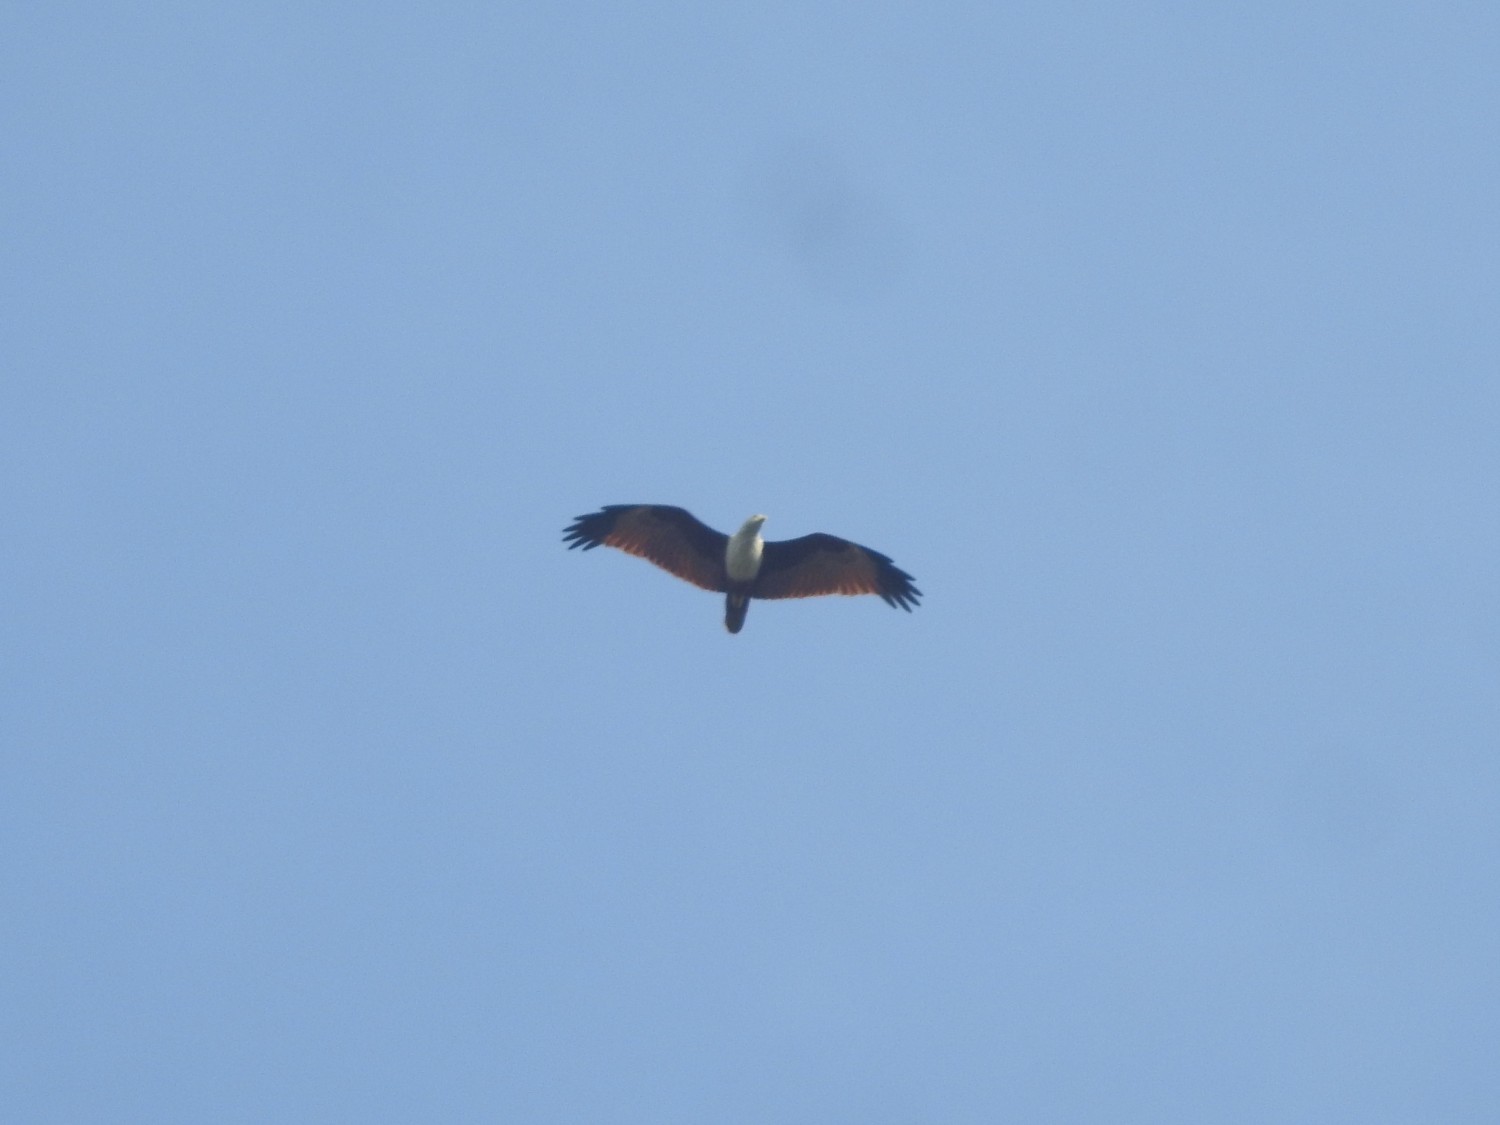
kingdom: Animalia
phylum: Chordata
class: Aves
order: Accipitriformes
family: Accipitridae
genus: Haliastur
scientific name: Haliastur indus
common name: Brahminy kite
